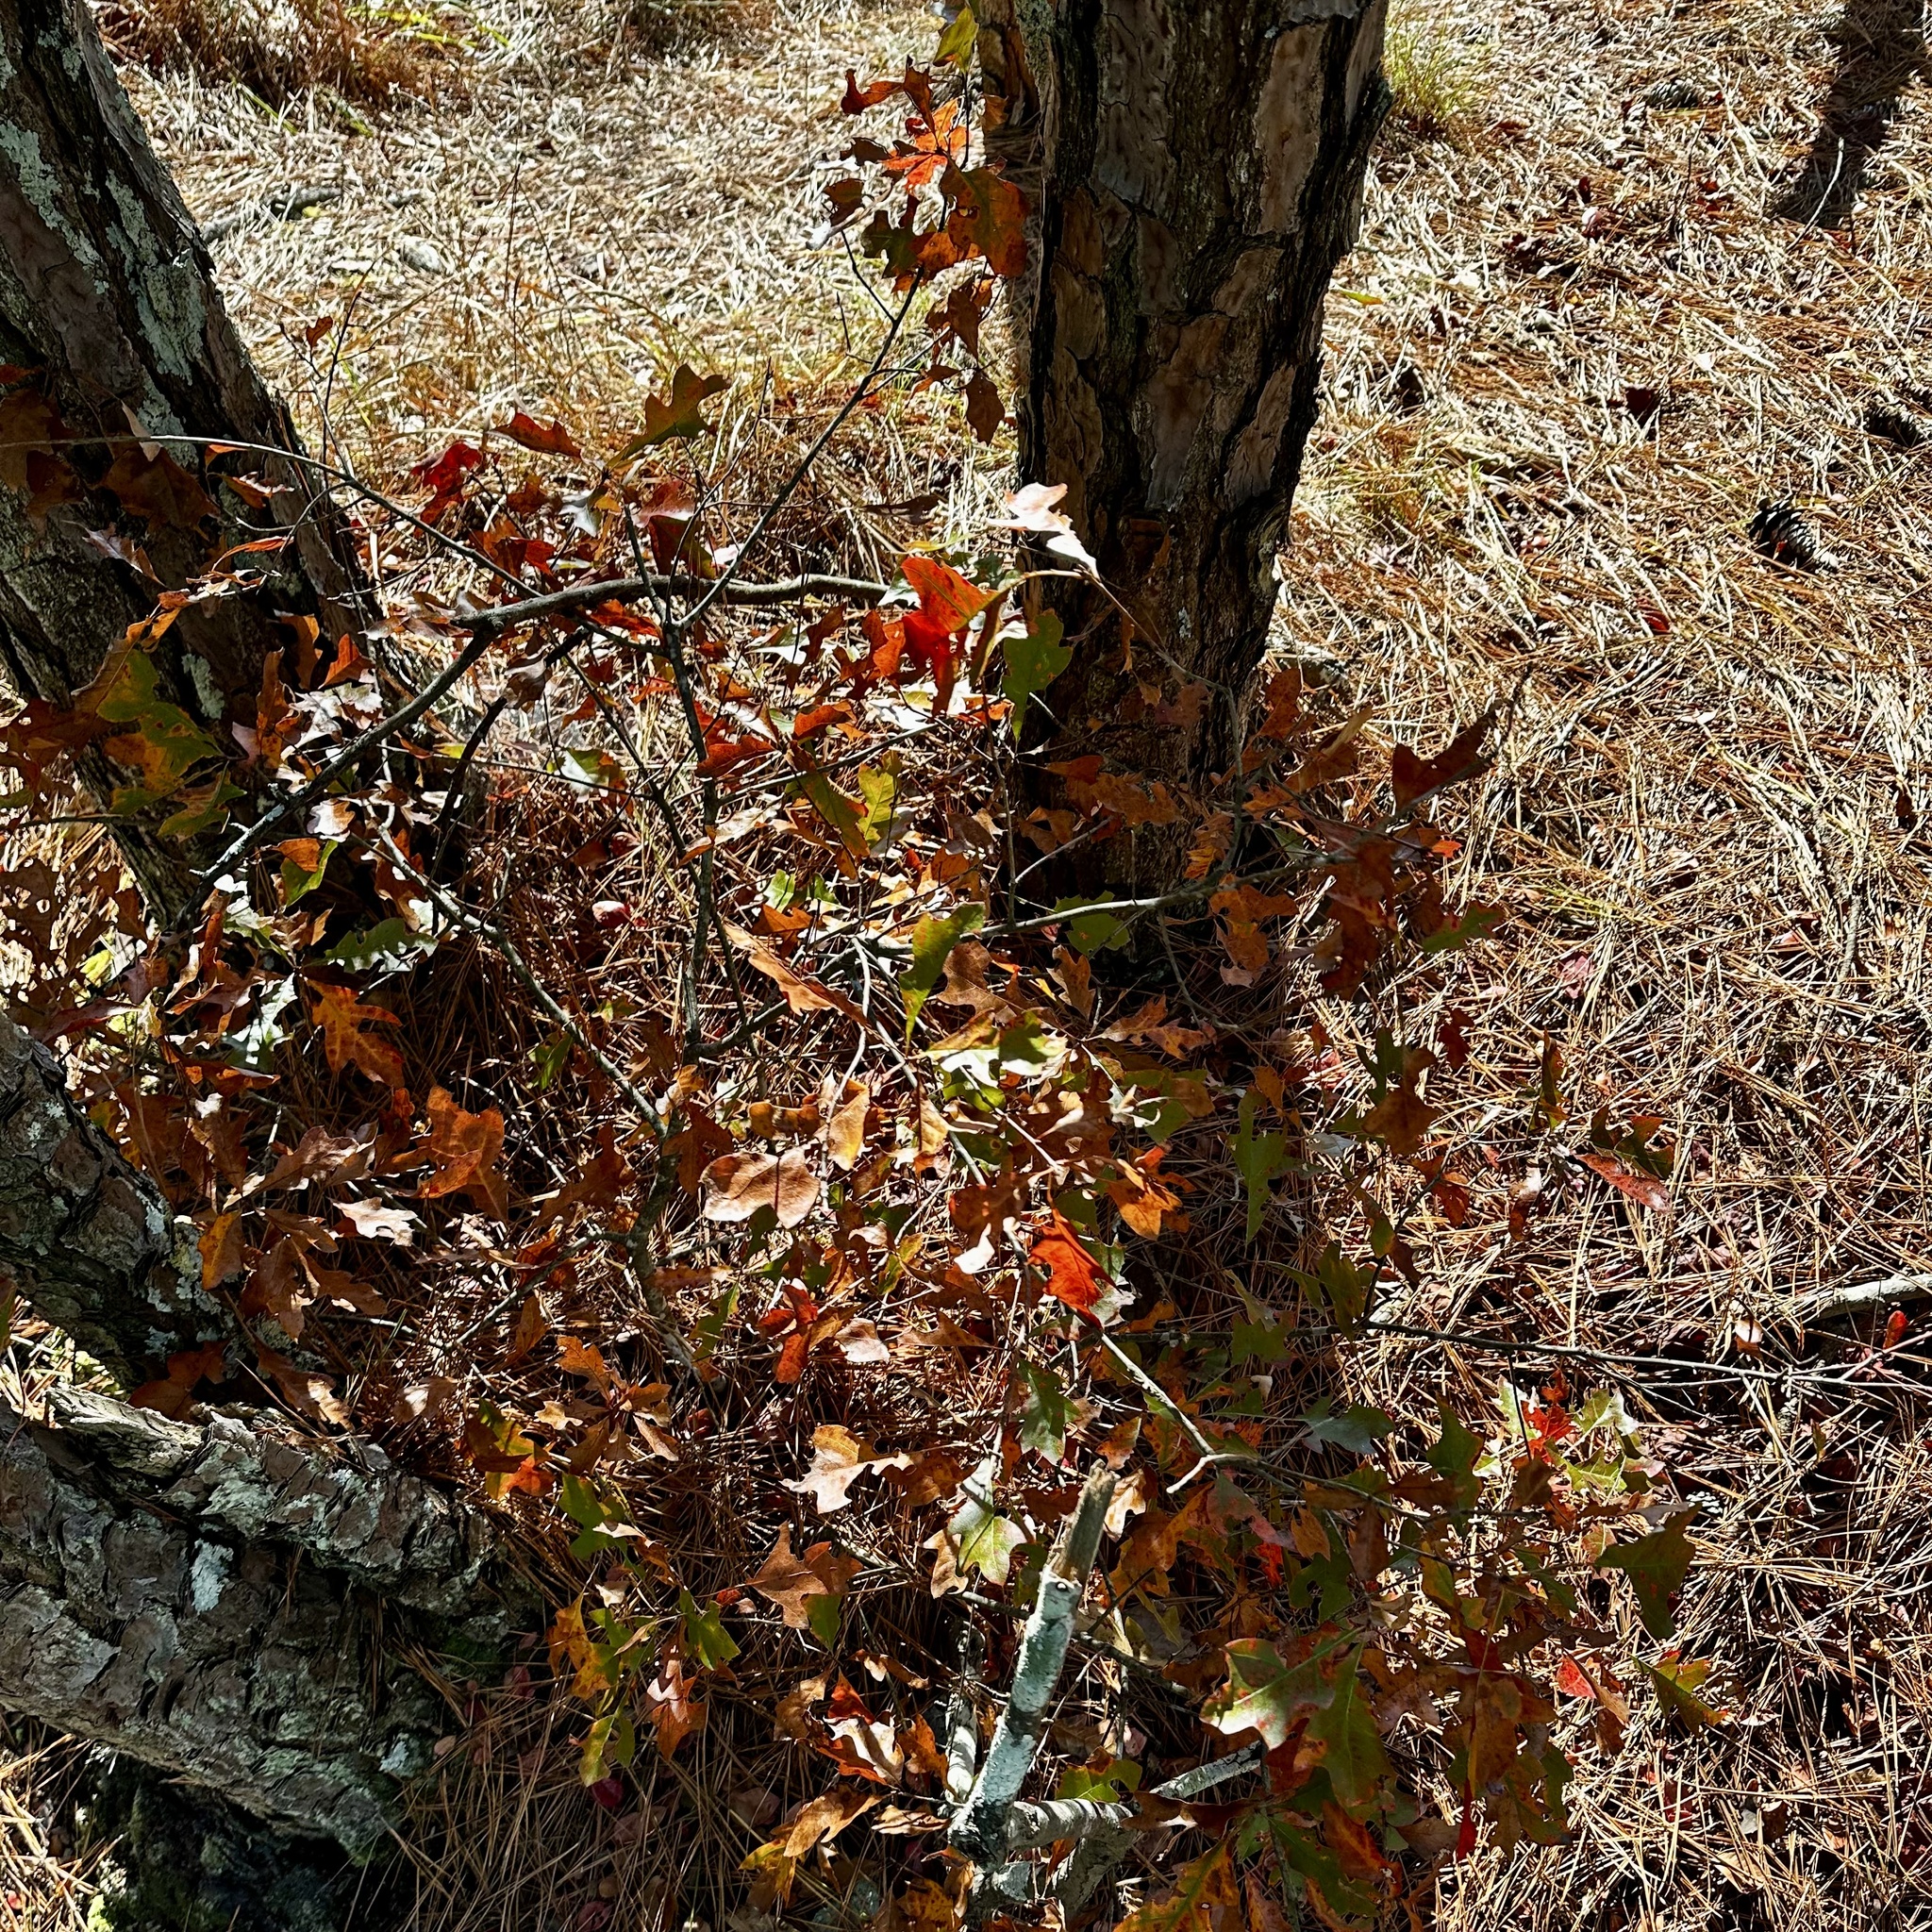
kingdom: Plantae
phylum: Tracheophyta
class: Magnoliopsida
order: Fagales
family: Fagaceae
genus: Quercus
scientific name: Quercus georgiana
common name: Georgia oak
